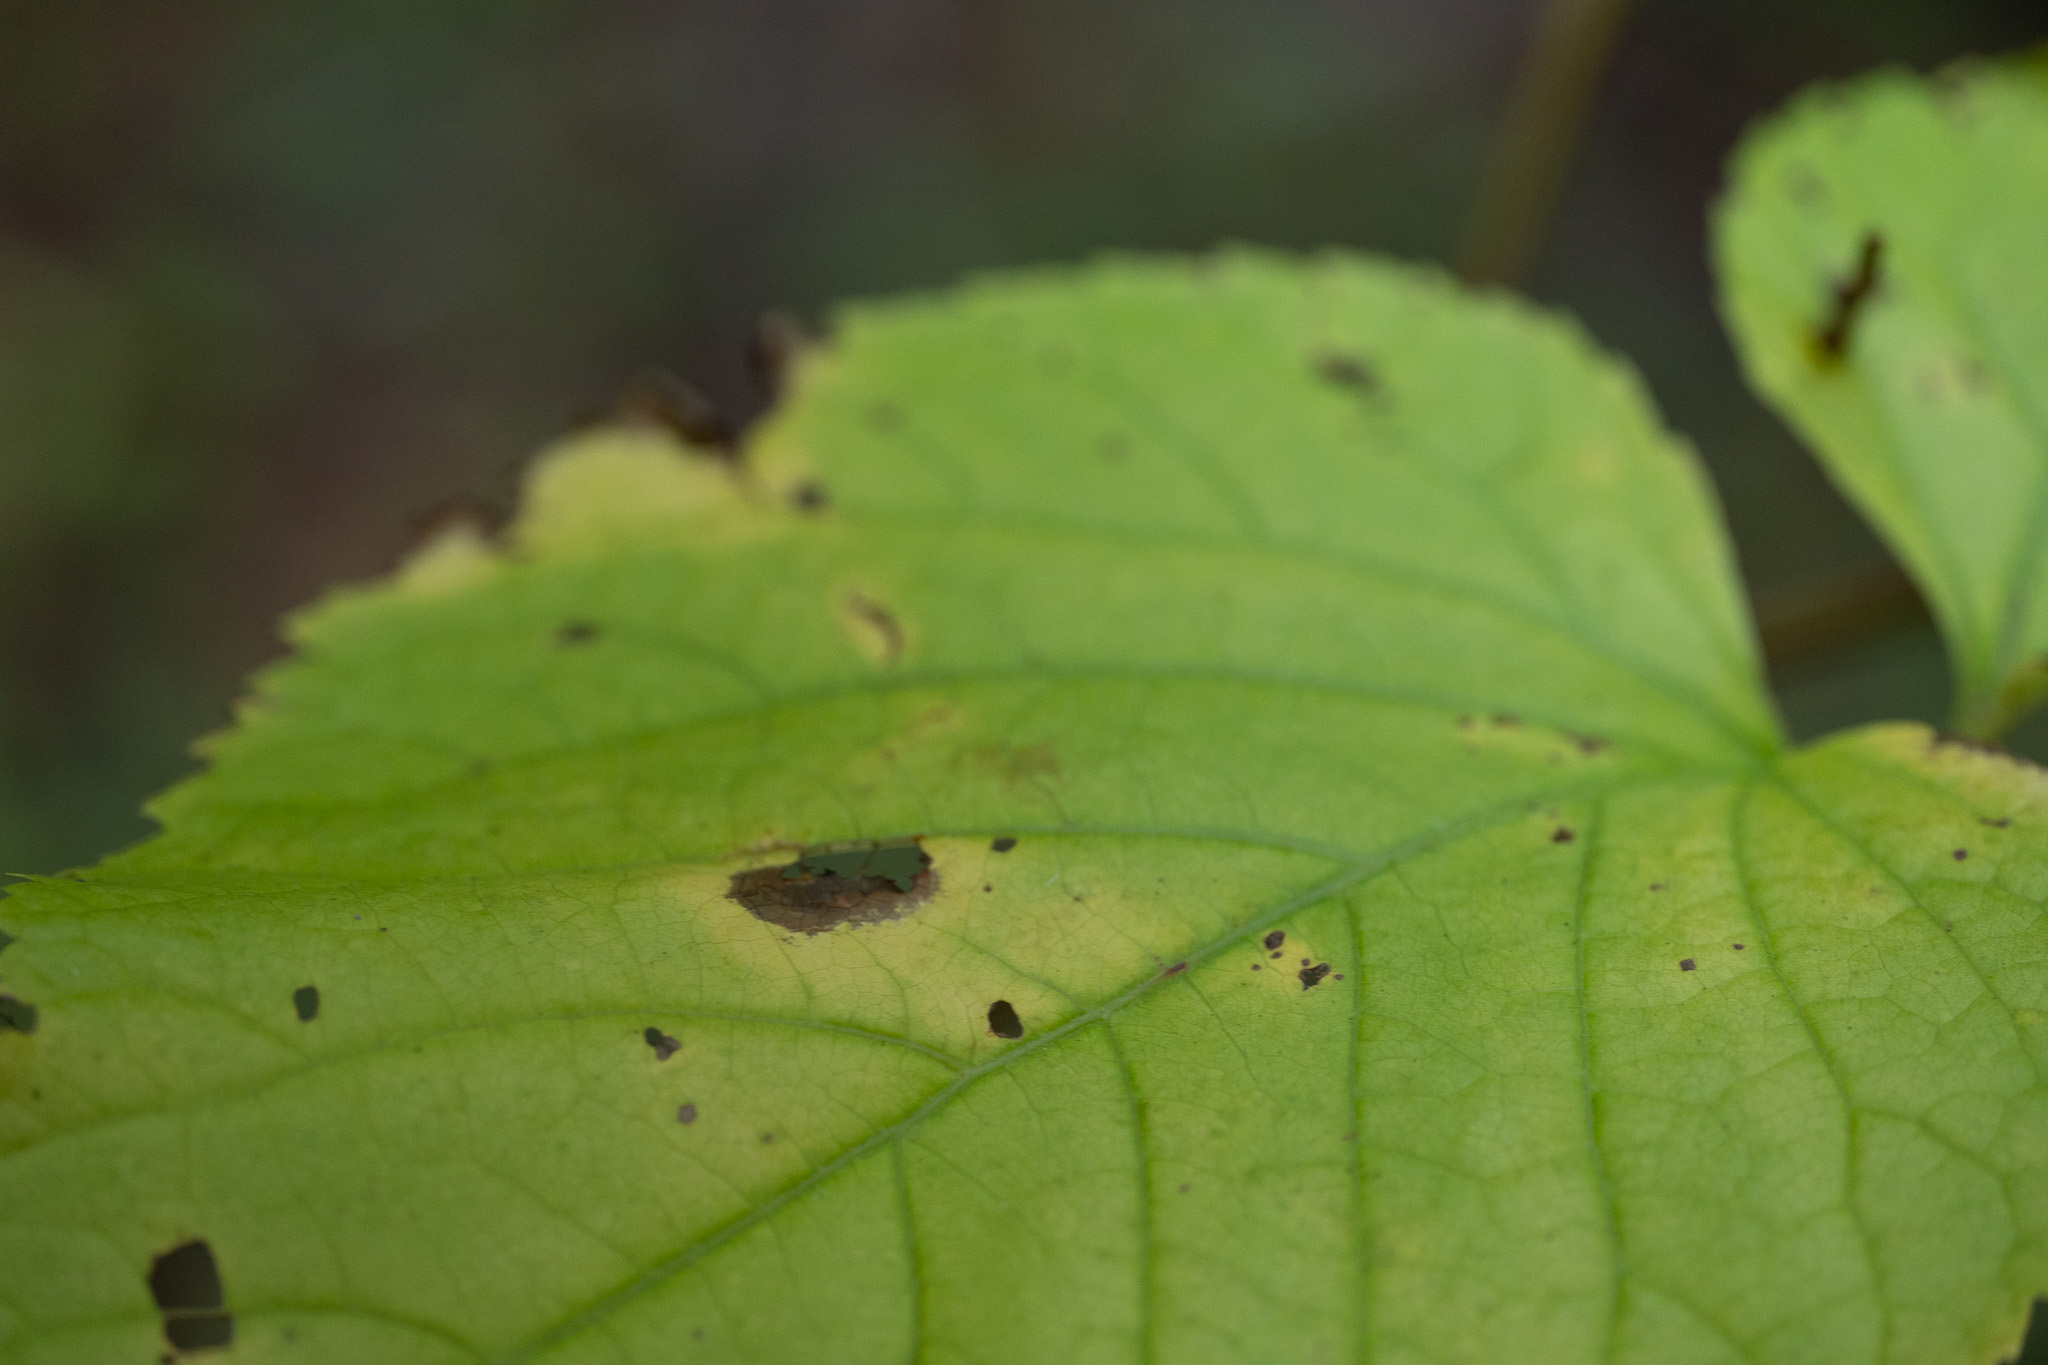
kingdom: Plantae
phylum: Tracheophyta
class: Magnoliopsida
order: Apiales
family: Araliaceae
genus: Aralia
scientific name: Aralia californica
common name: California-ginseng
